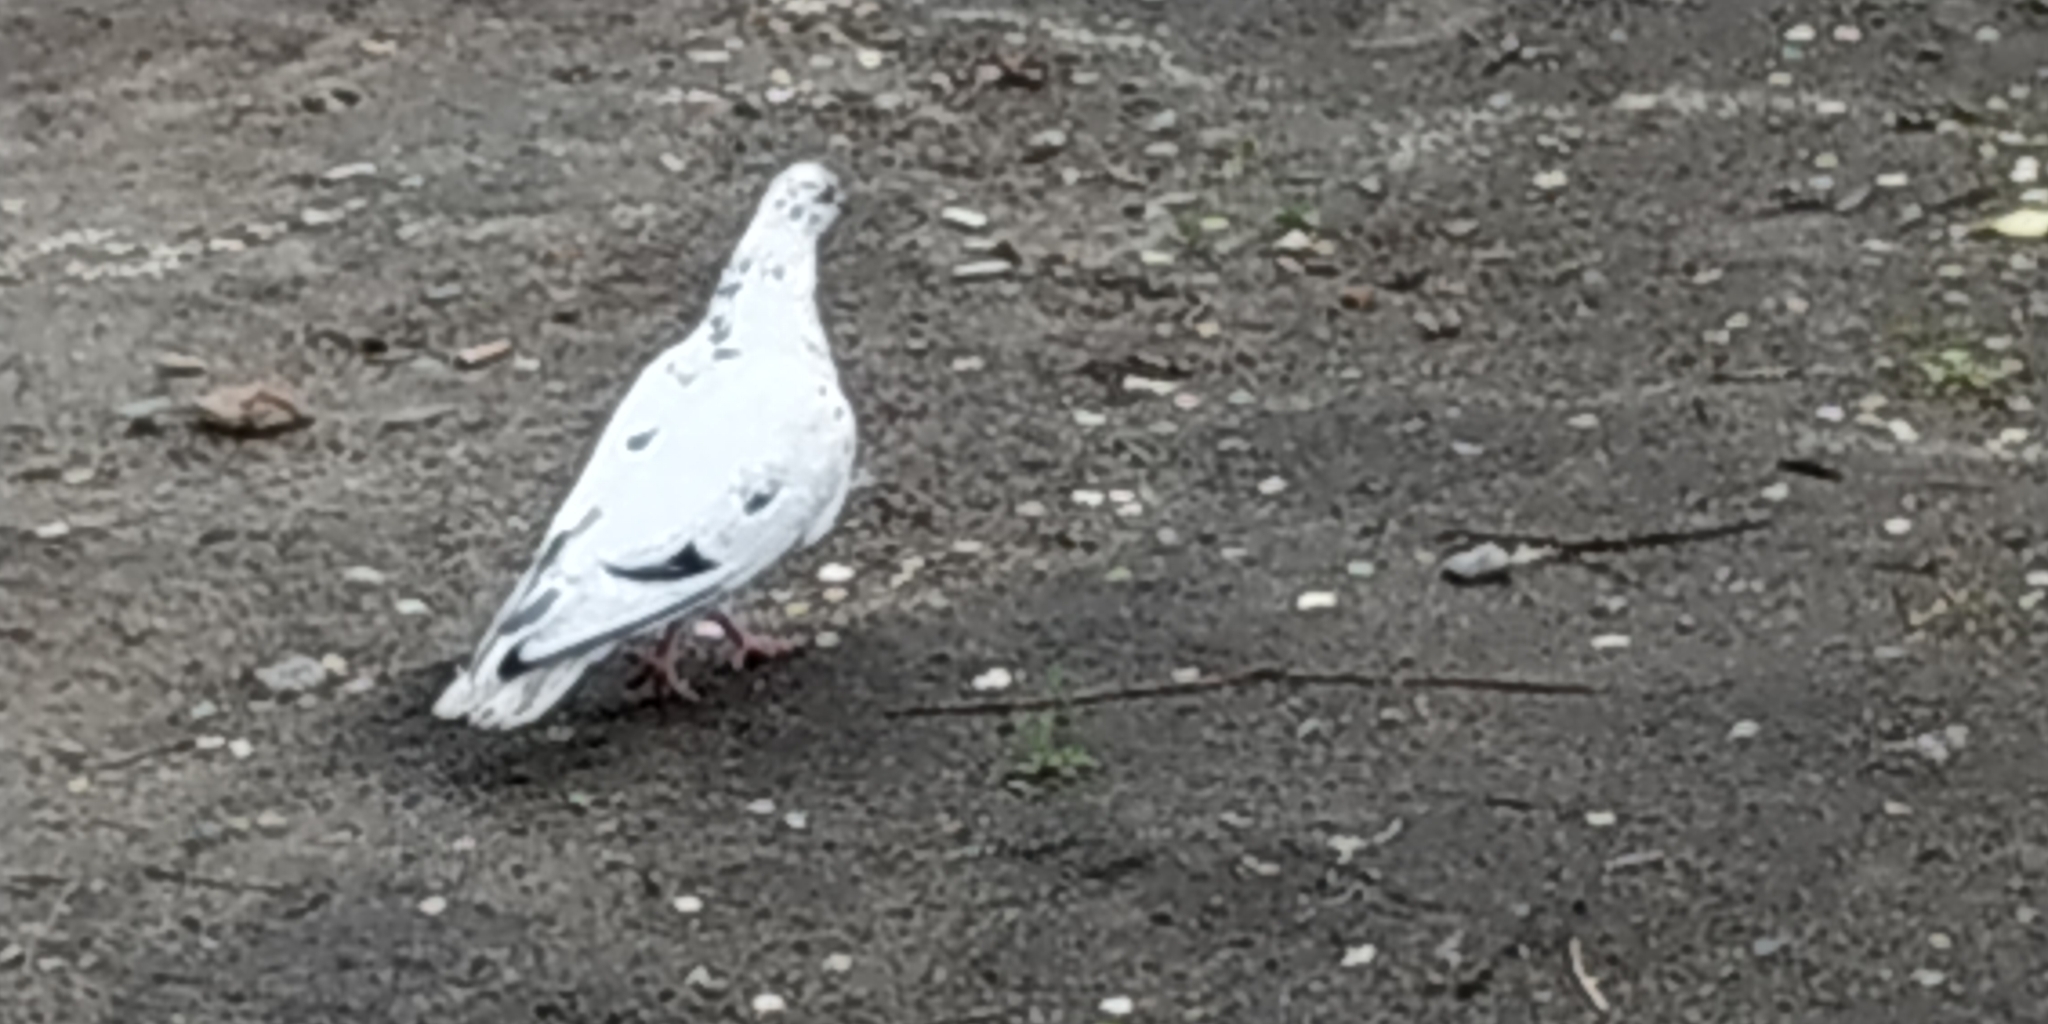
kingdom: Animalia
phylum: Chordata
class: Aves
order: Columbiformes
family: Columbidae
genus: Columba
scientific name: Columba livia
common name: Rock pigeon
